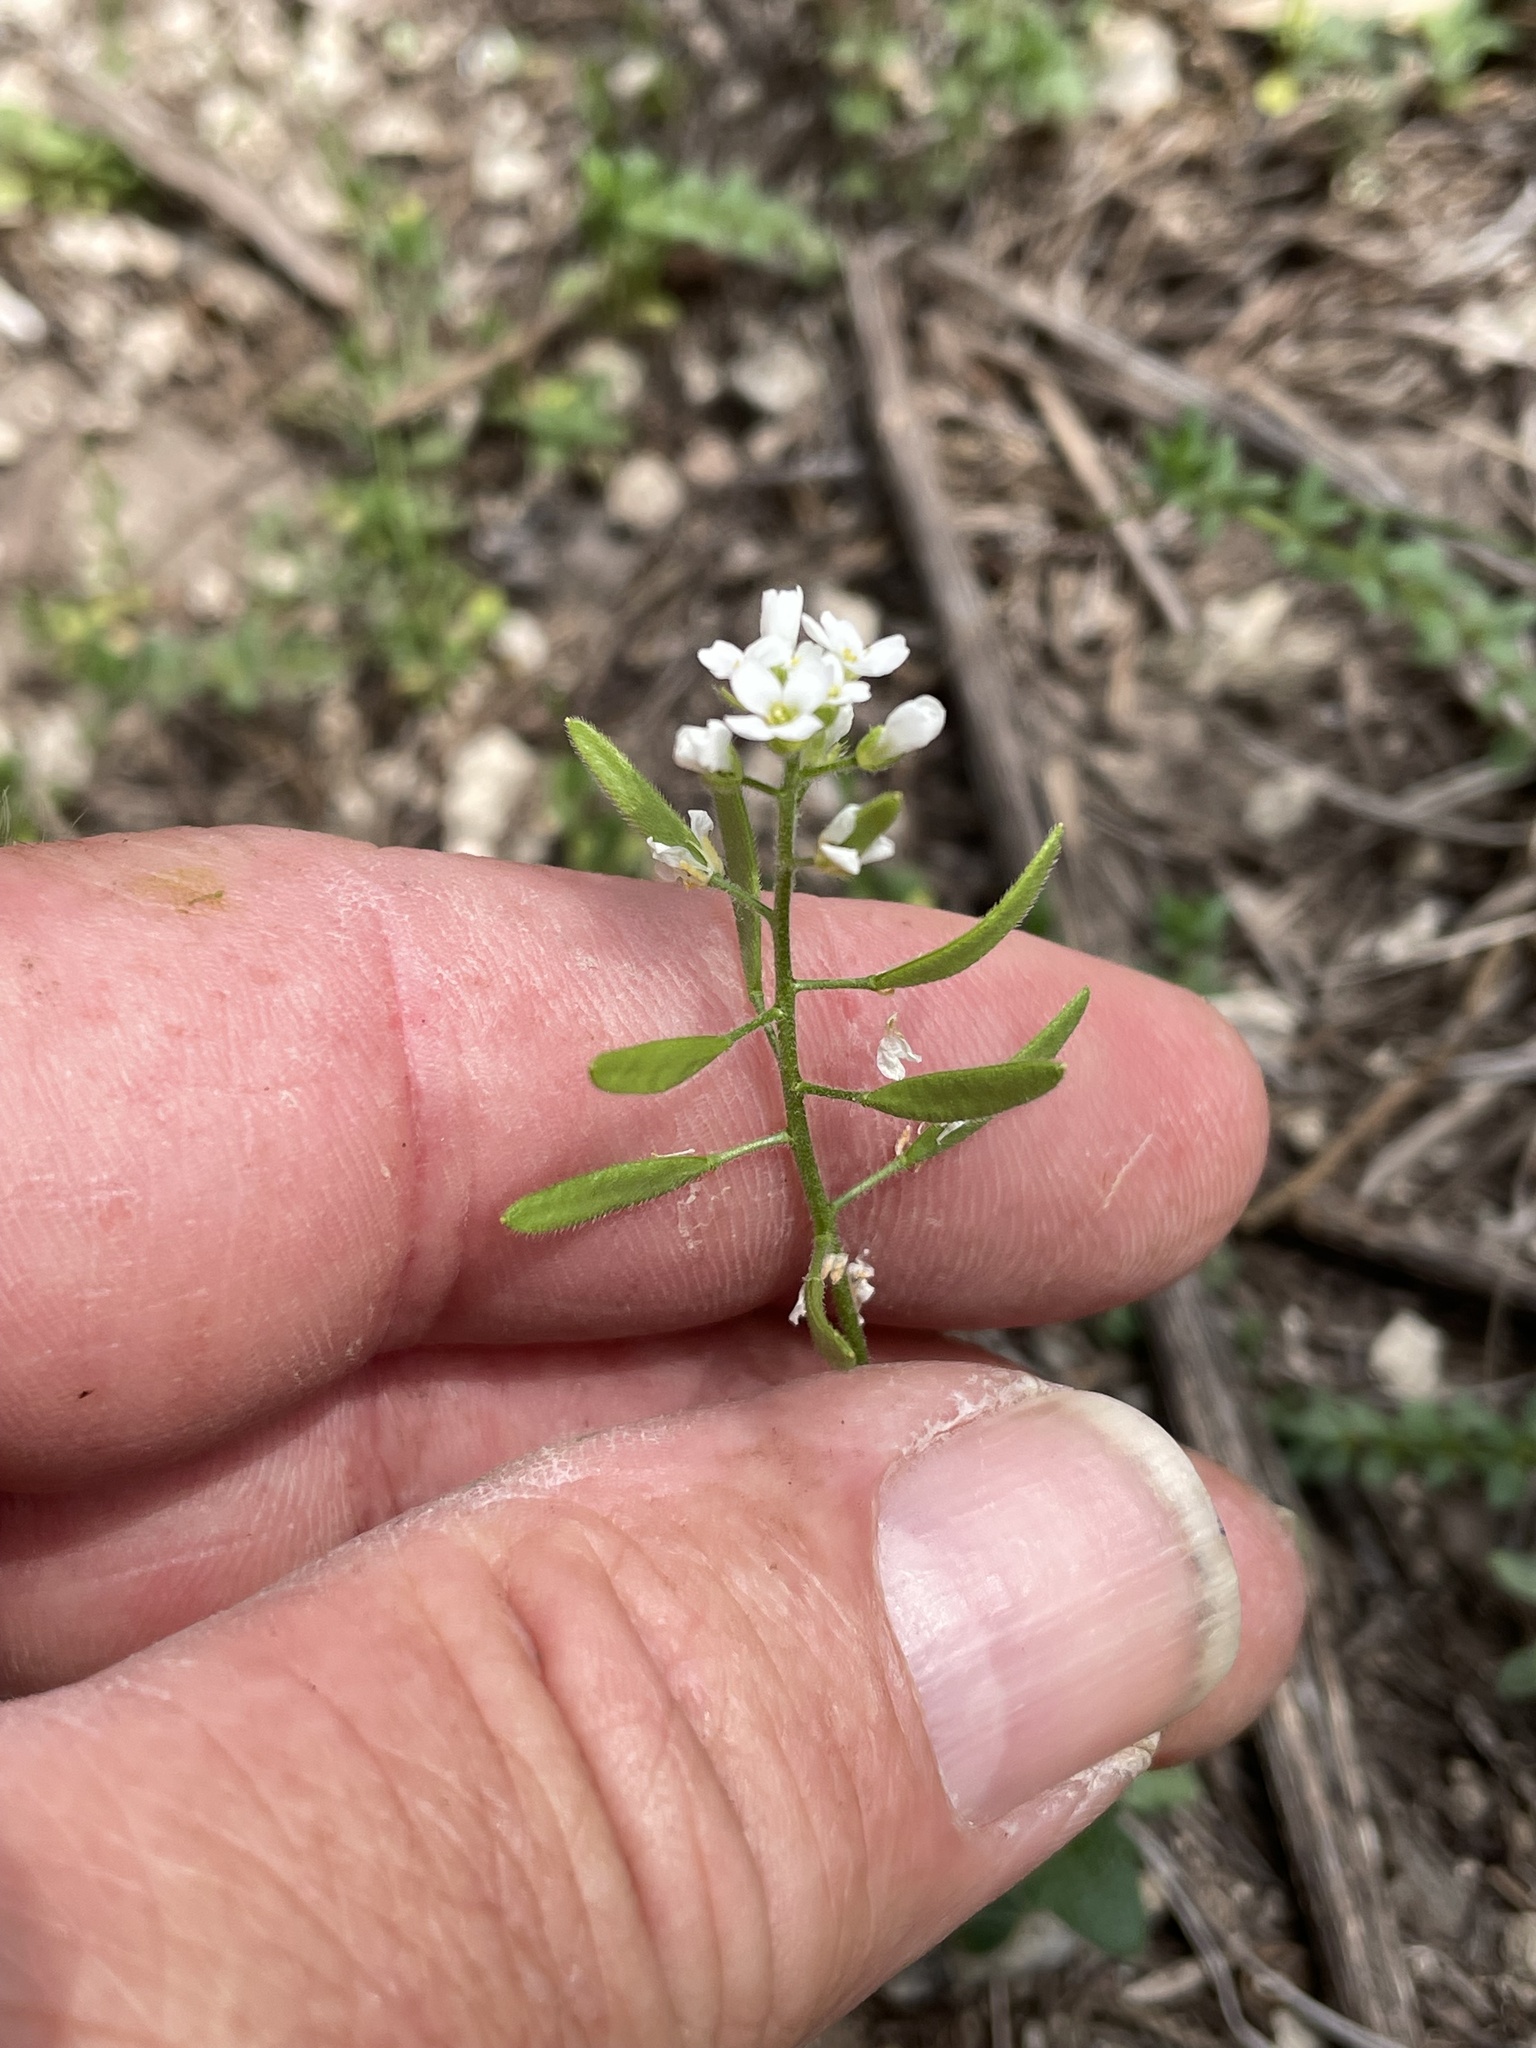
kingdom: Plantae
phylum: Tracheophyta
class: Magnoliopsida
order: Brassicales
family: Brassicaceae
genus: Tomostima
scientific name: Tomostima cuneifolia
